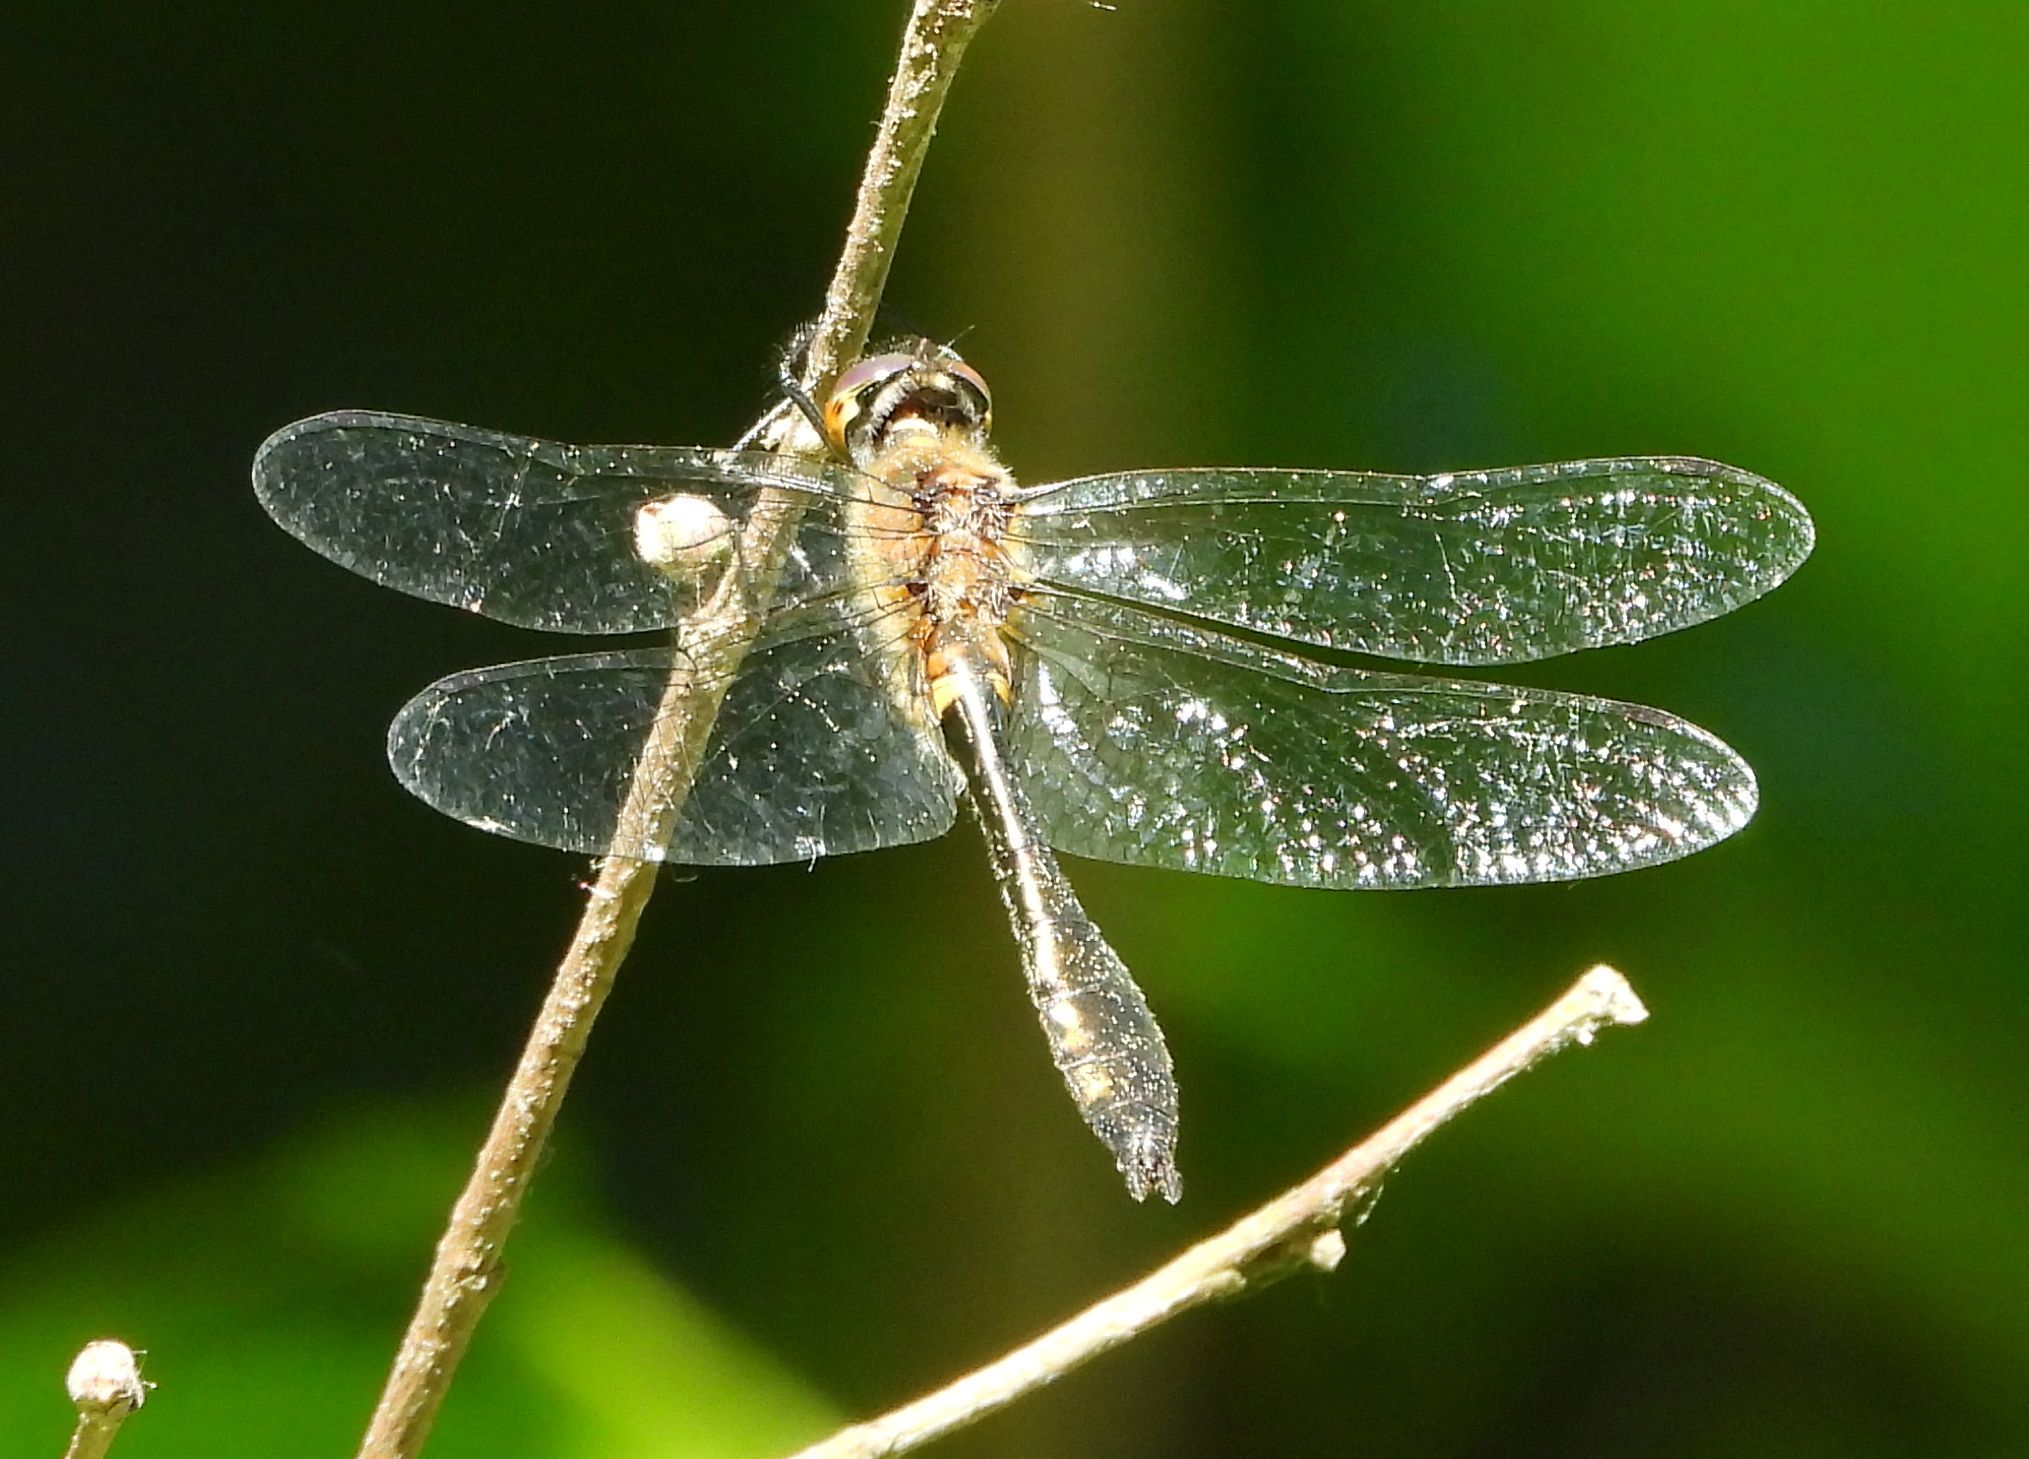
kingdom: Animalia
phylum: Arthropoda
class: Insecta
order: Odonata
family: Corduliidae
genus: Dorocordulia
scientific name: Dorocordulia libera
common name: Racket-tailed emerald
